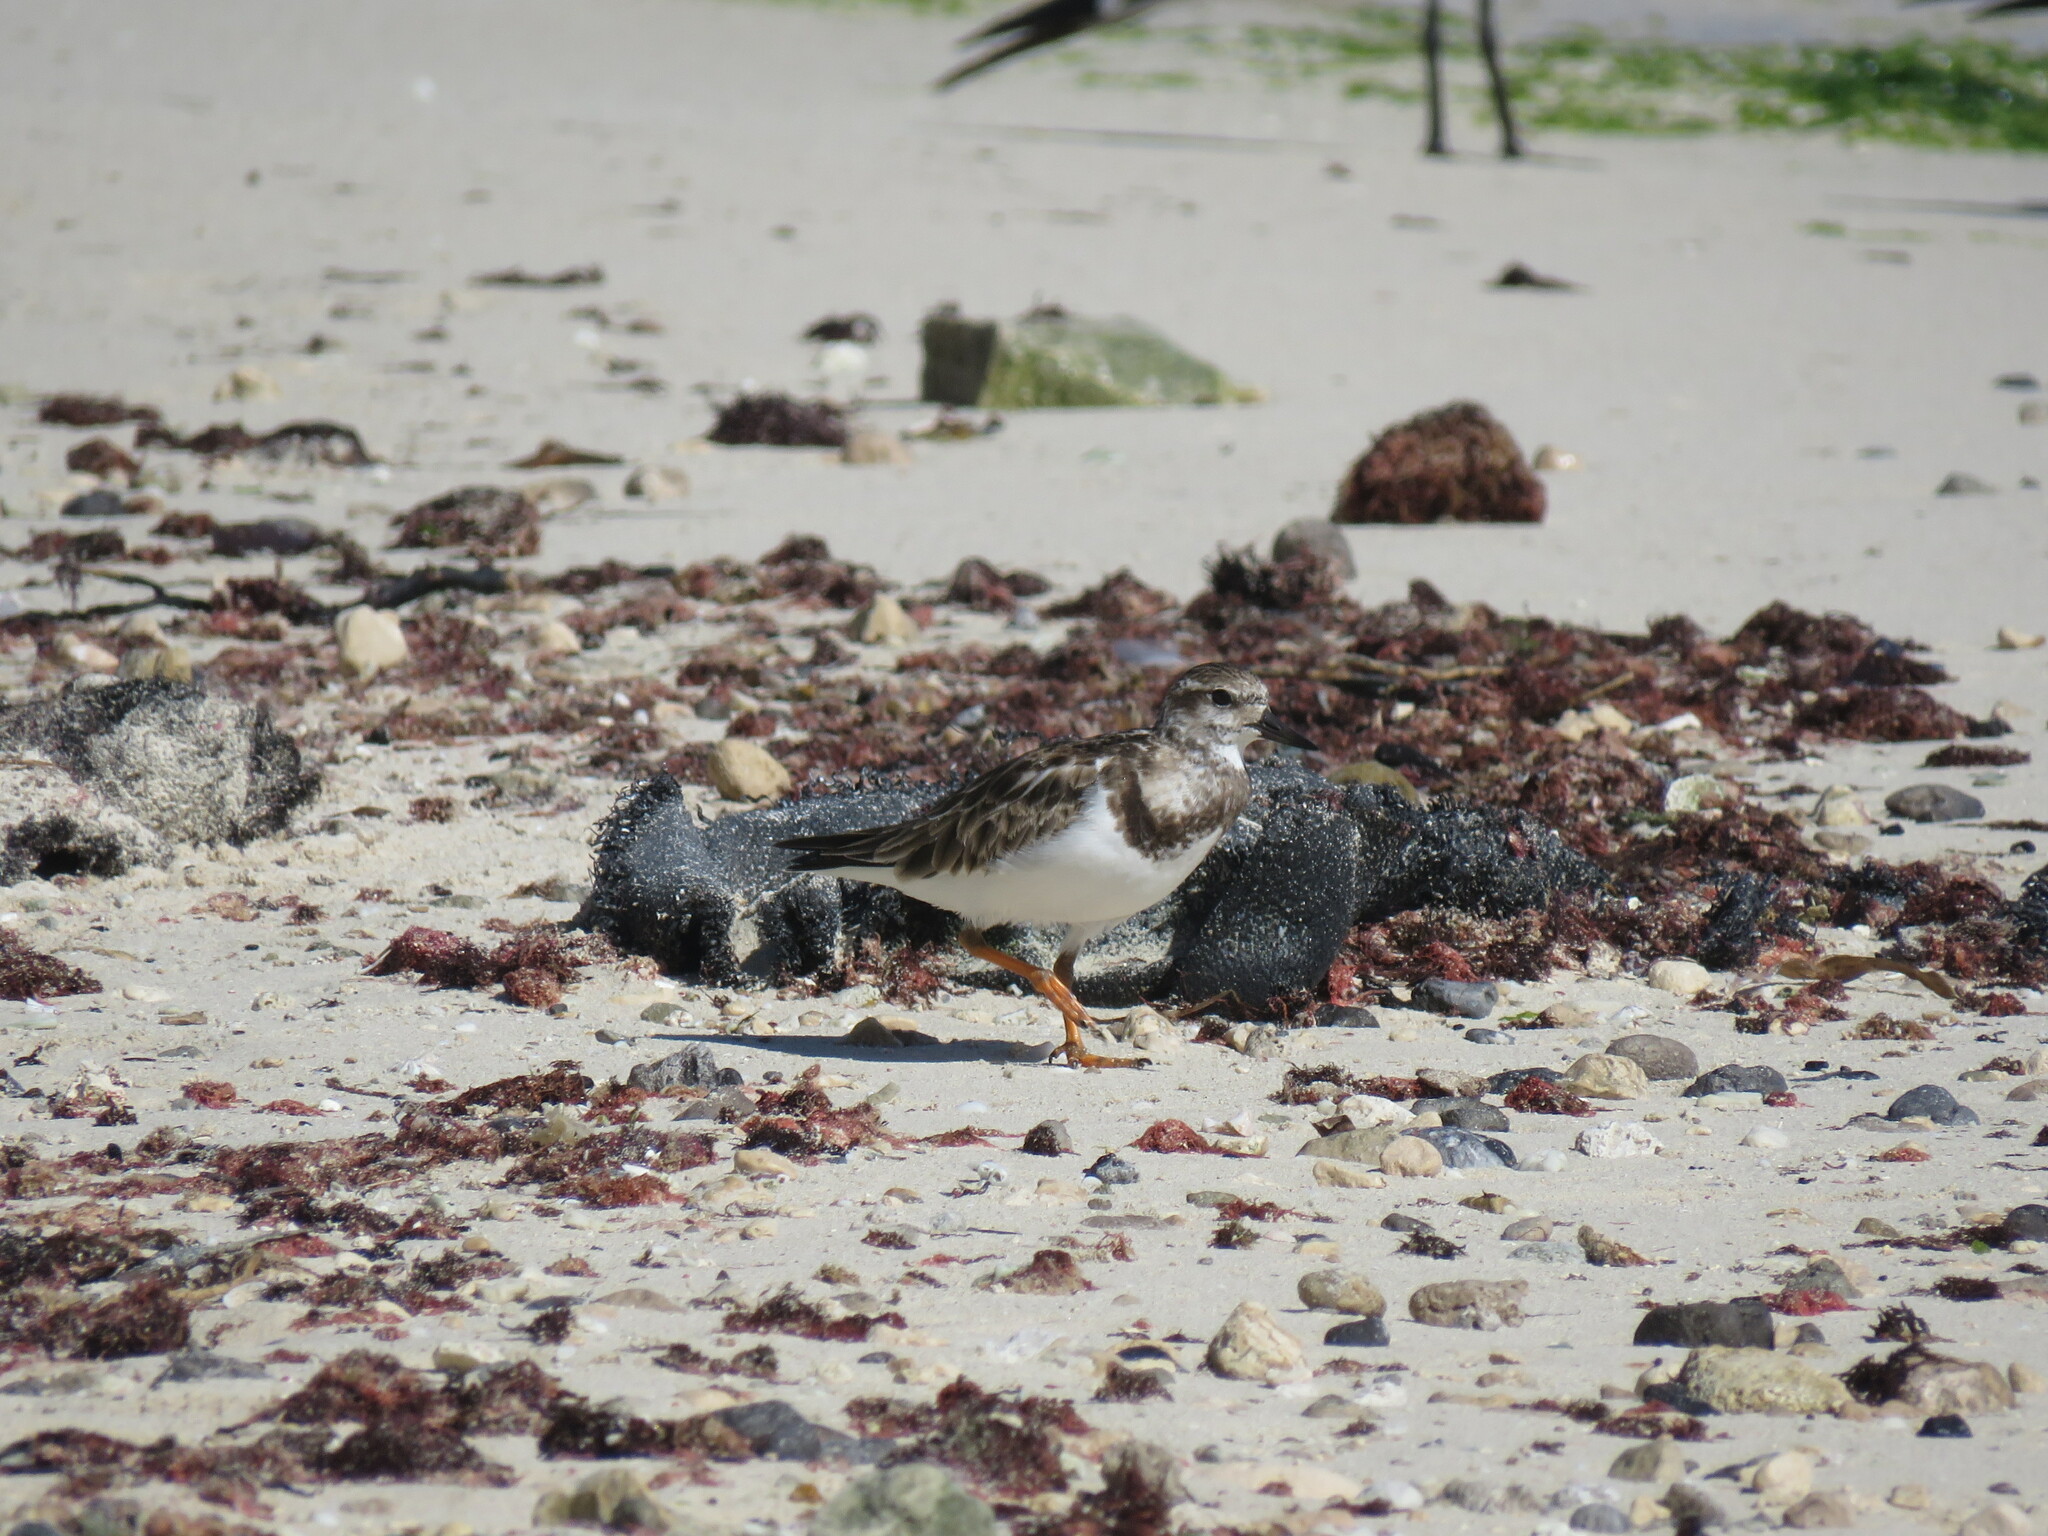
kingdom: Animalia
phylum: Chordata
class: Aves
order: Charadriiformes
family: Scolopacidae
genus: Arenaria
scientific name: Arenaria interpres
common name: Ruddy turnstone
